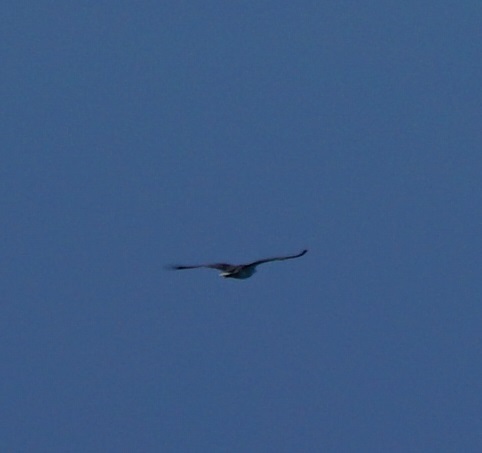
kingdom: Animalia
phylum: Chordata
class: Aves
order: Accipitriformes
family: Accipitridae
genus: Haliaeetus
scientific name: Haliaeetus leucogaster
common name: White-bellied sea eagle
